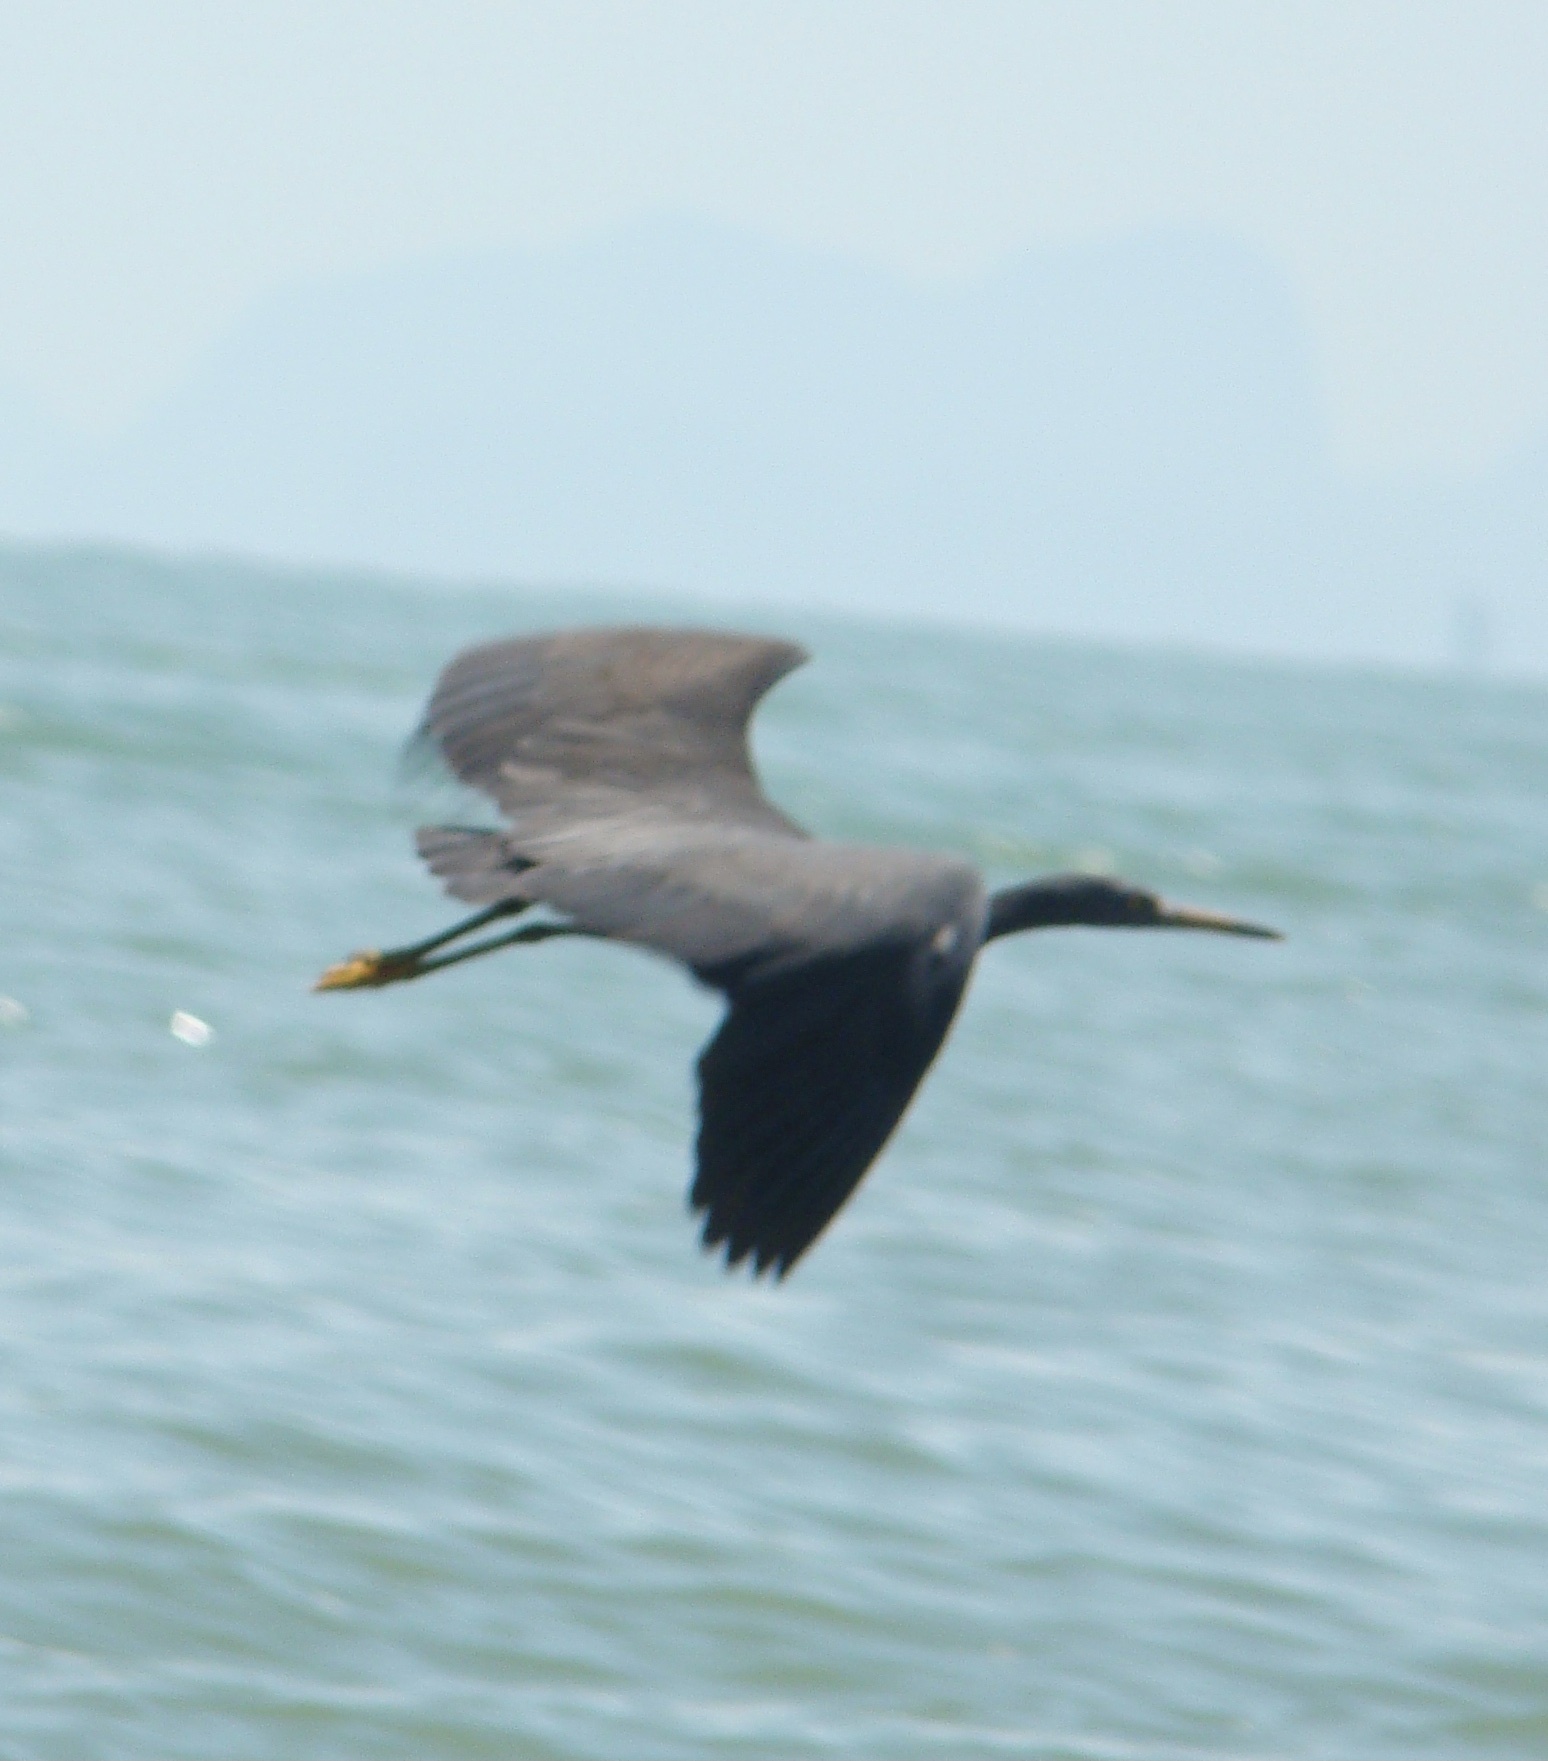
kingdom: Animalia
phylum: Chordata
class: Aves
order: Pelecaniformes
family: Ardeidae
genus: Egretta
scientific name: Egretta sacra
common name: Pacific reef heron
